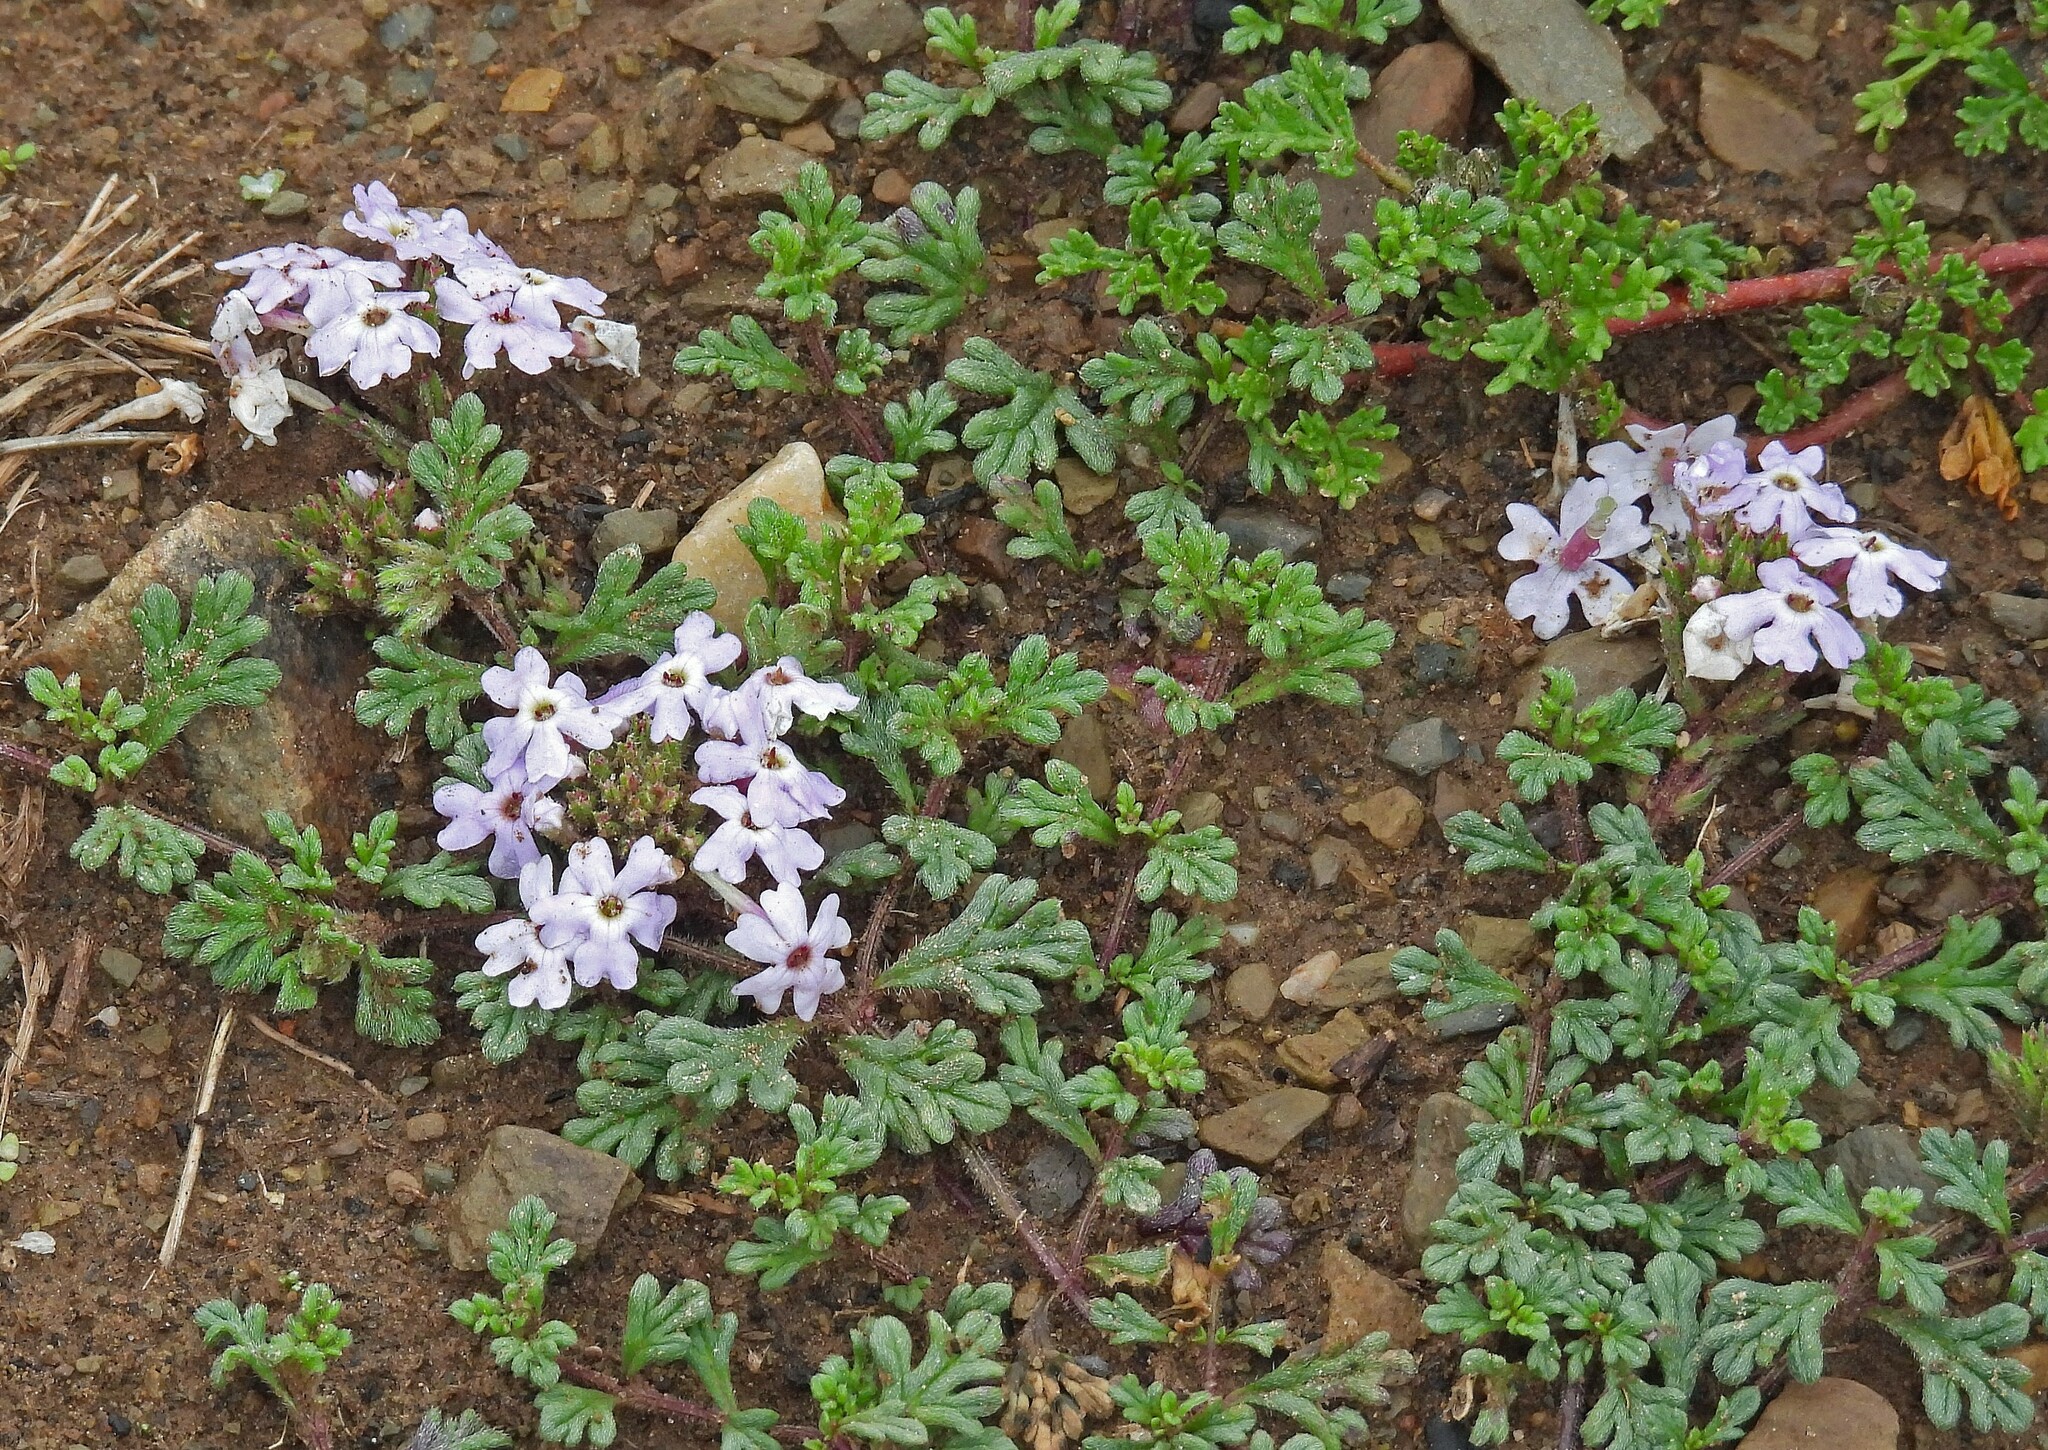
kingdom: Plantae
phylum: Tracheophyta
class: Magnoliopsida
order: Lamiales
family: Verbenaceae
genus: Verbena
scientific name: Verbena microphylla
